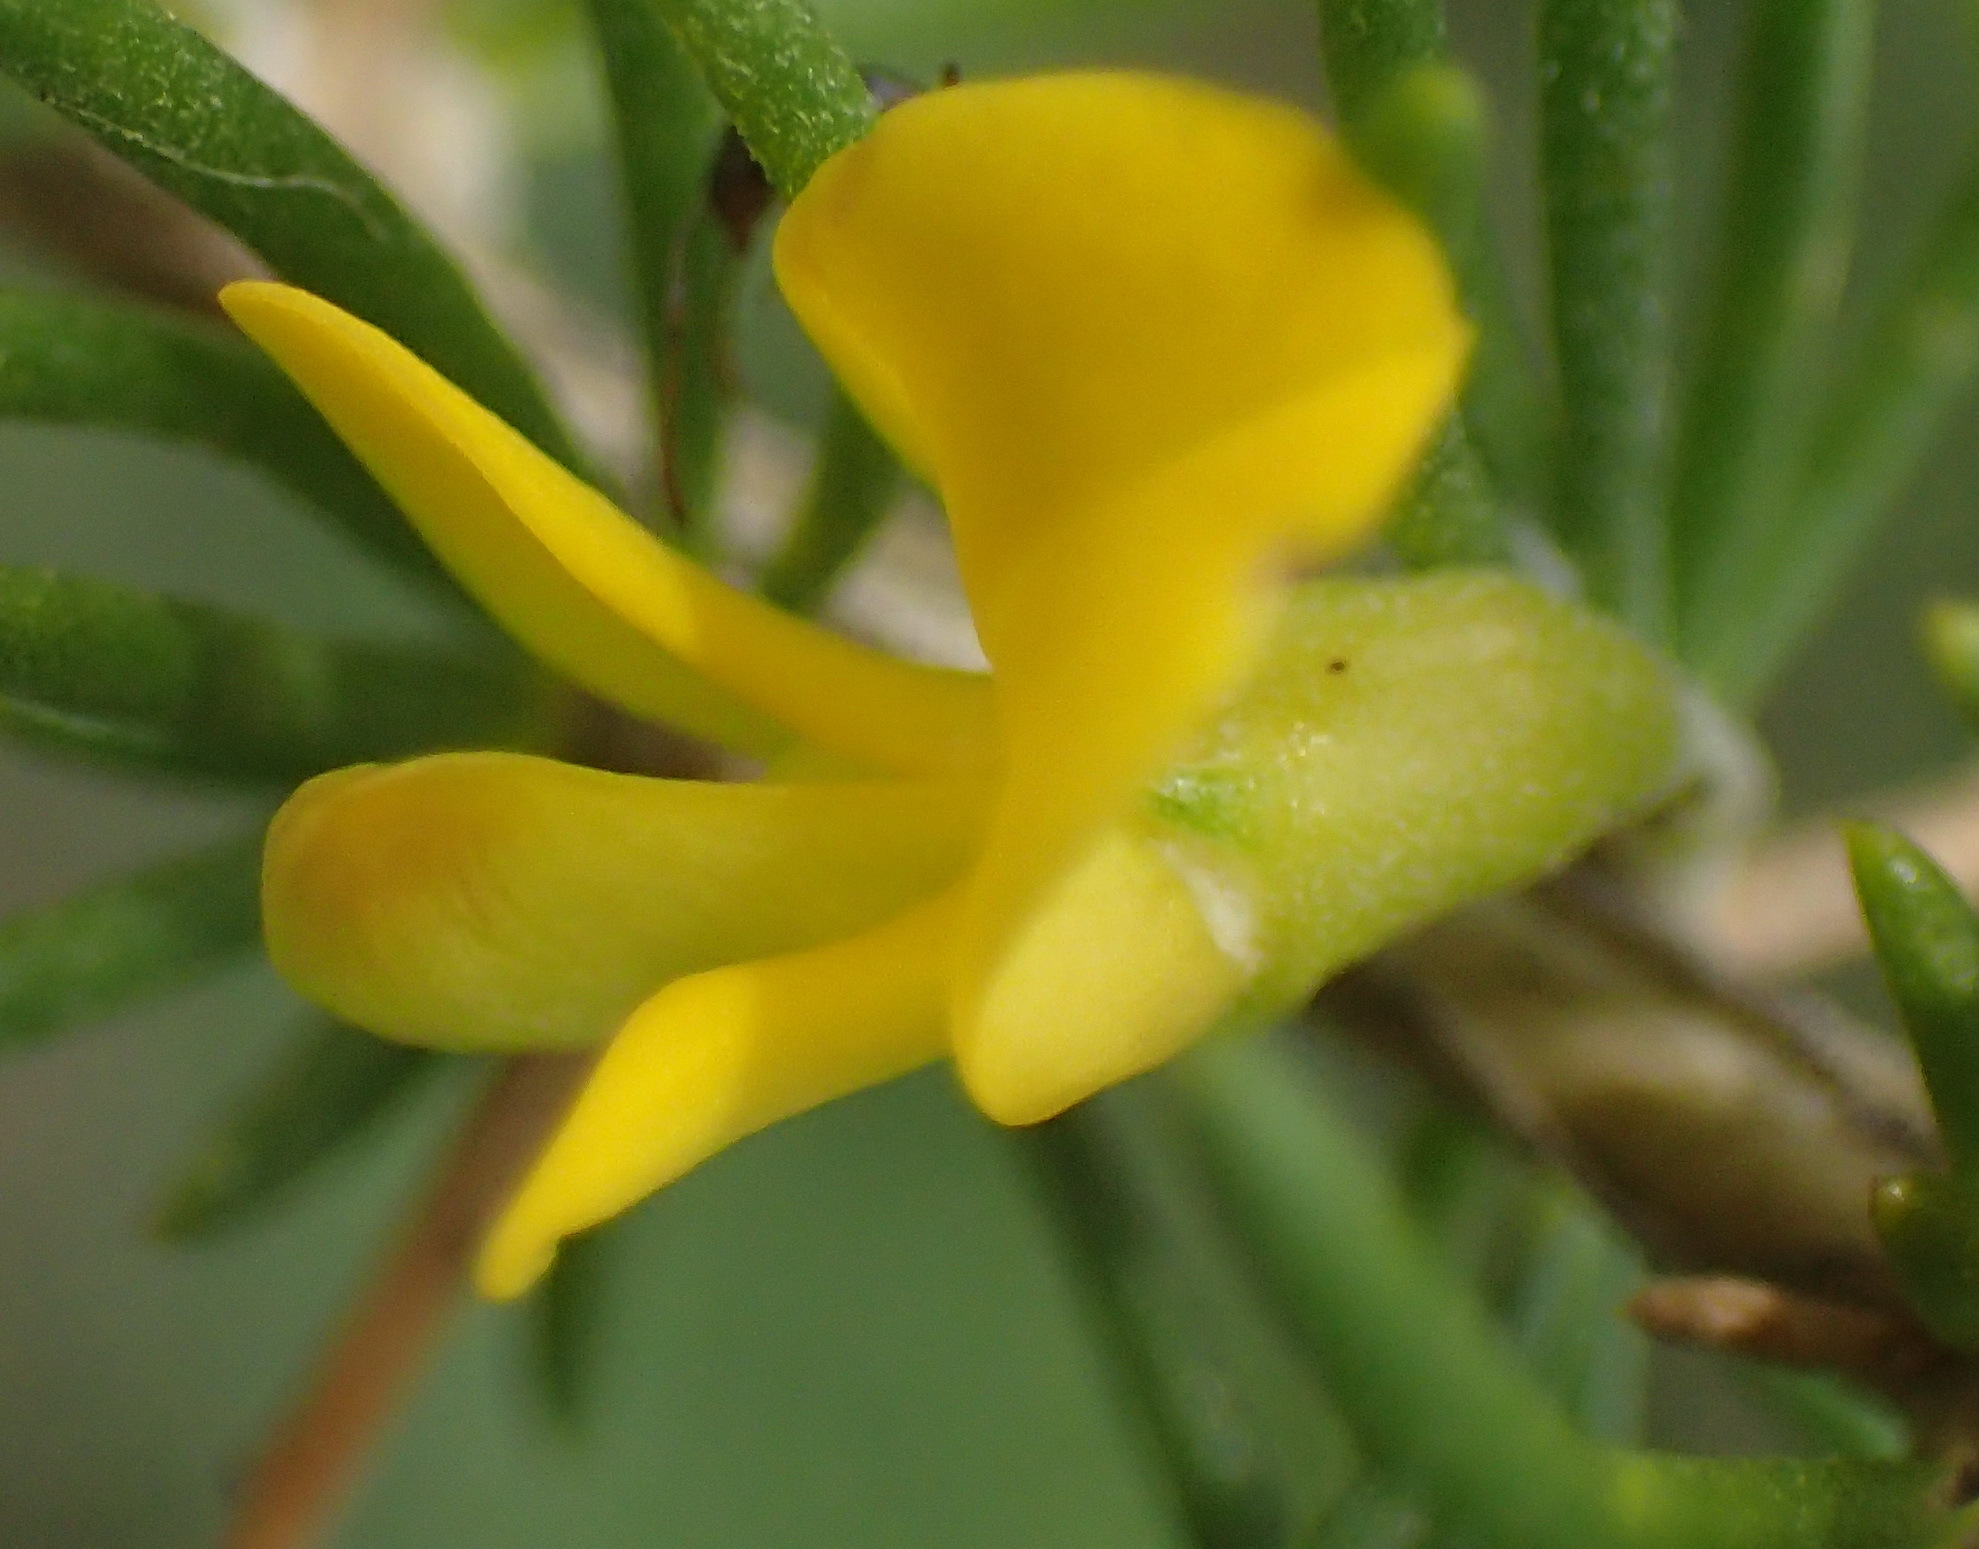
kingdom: Plantae
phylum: Tracheophyta
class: Magnoliopsida
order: Fabales
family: Fabaceae
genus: Aspalathus
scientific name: Aspalathus spinosa
